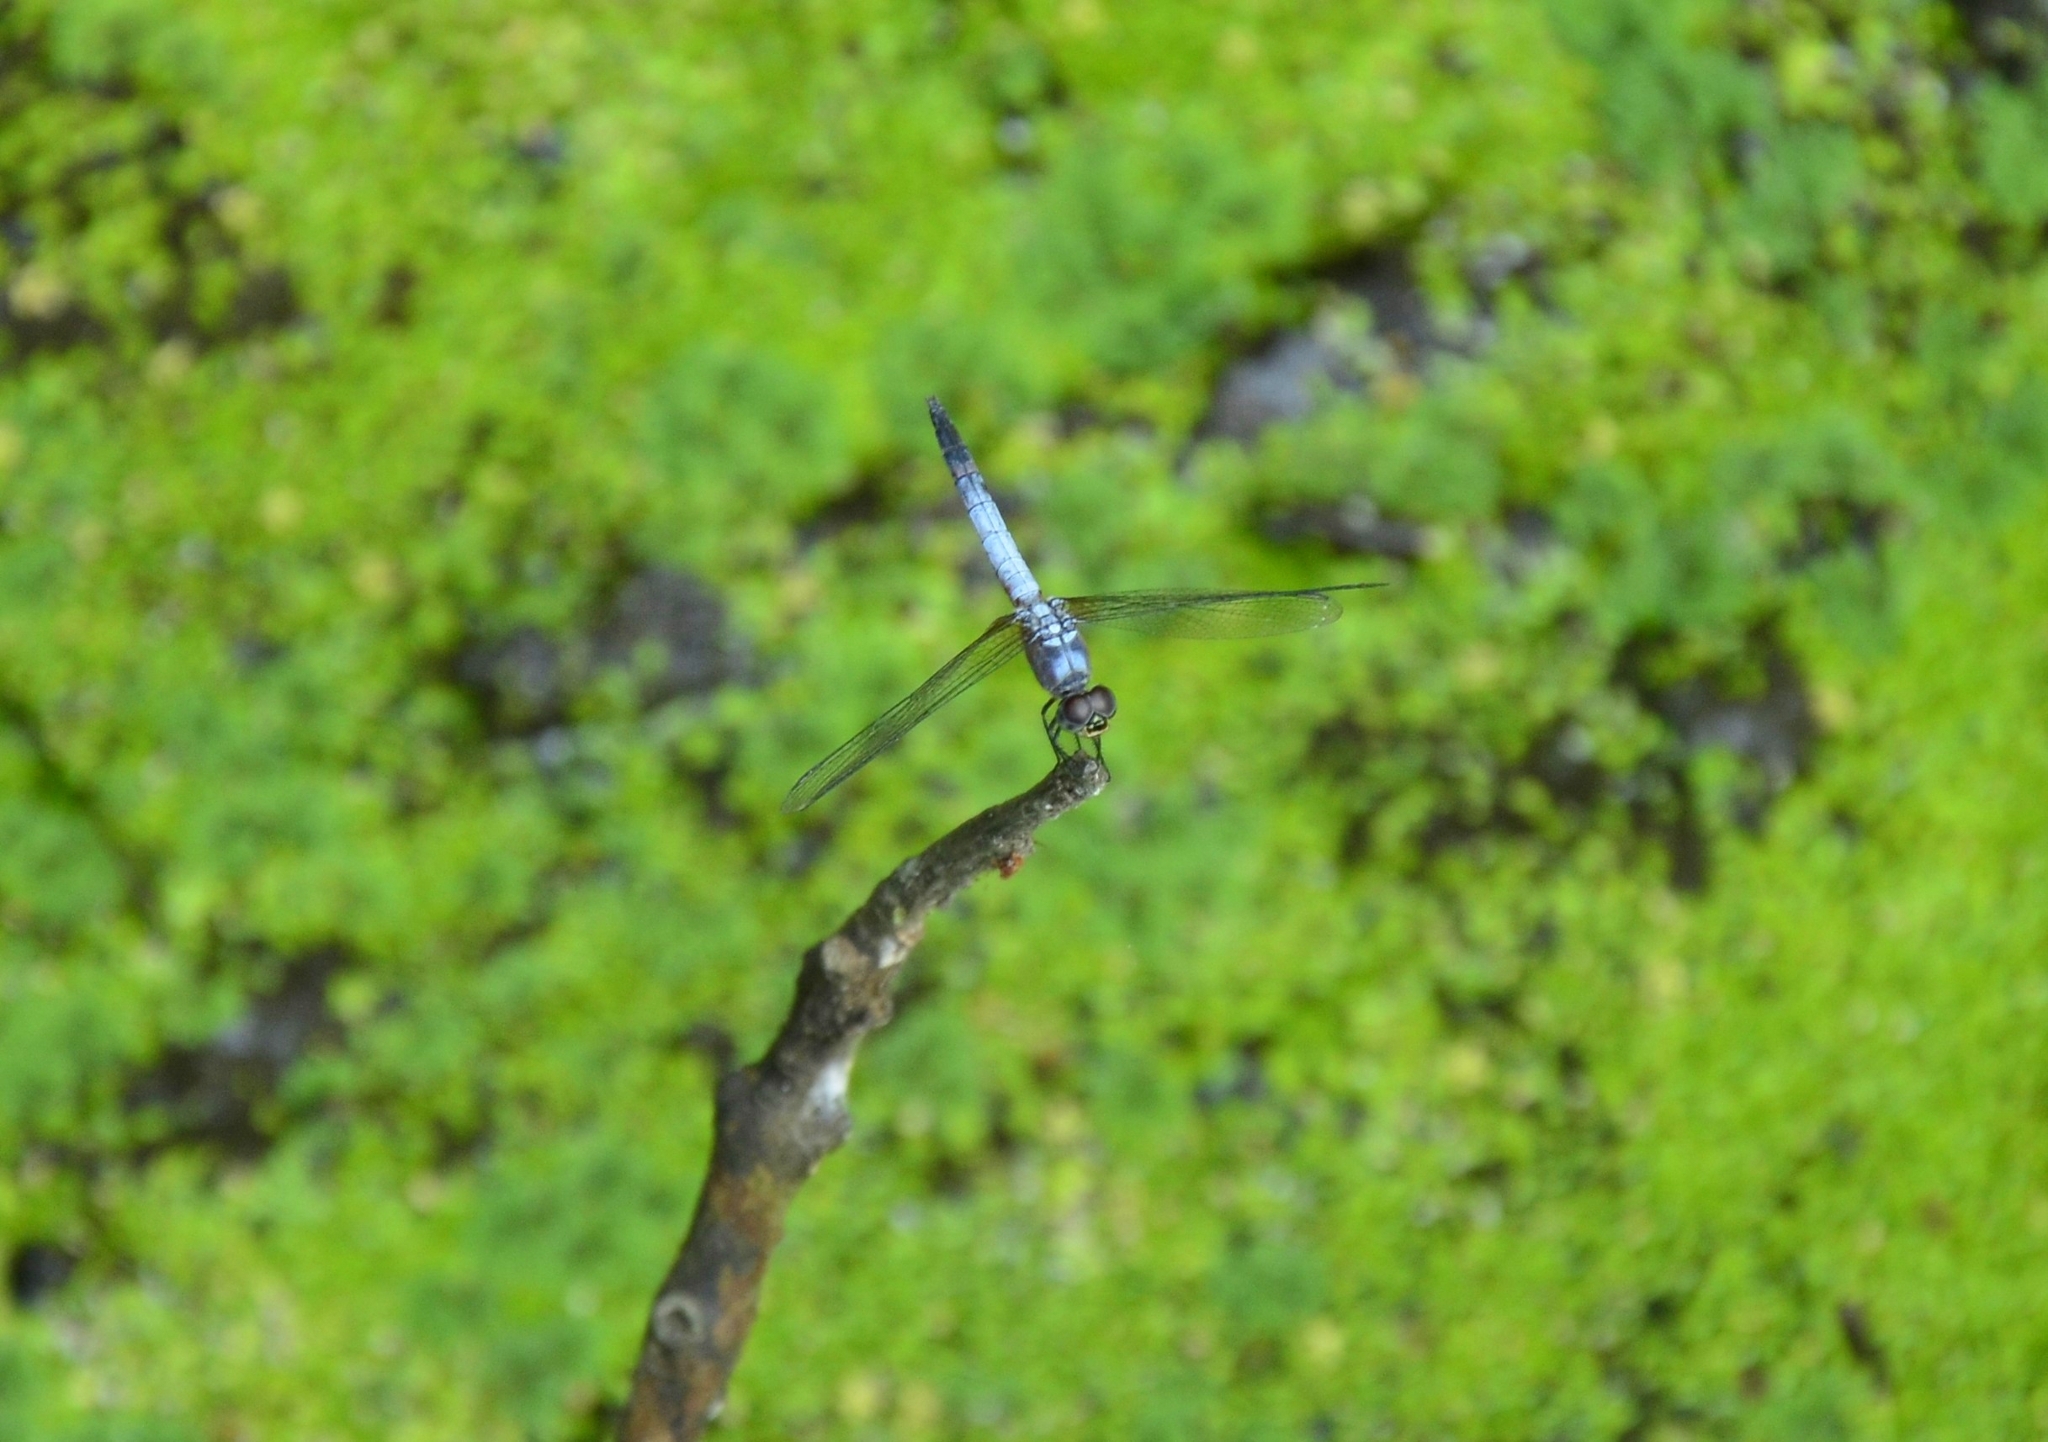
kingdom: Animalia
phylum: Arthropoda
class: Insecta
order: Odonata
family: Libellulidae
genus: Brachydiplax
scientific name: Brachydiplax chalybea
